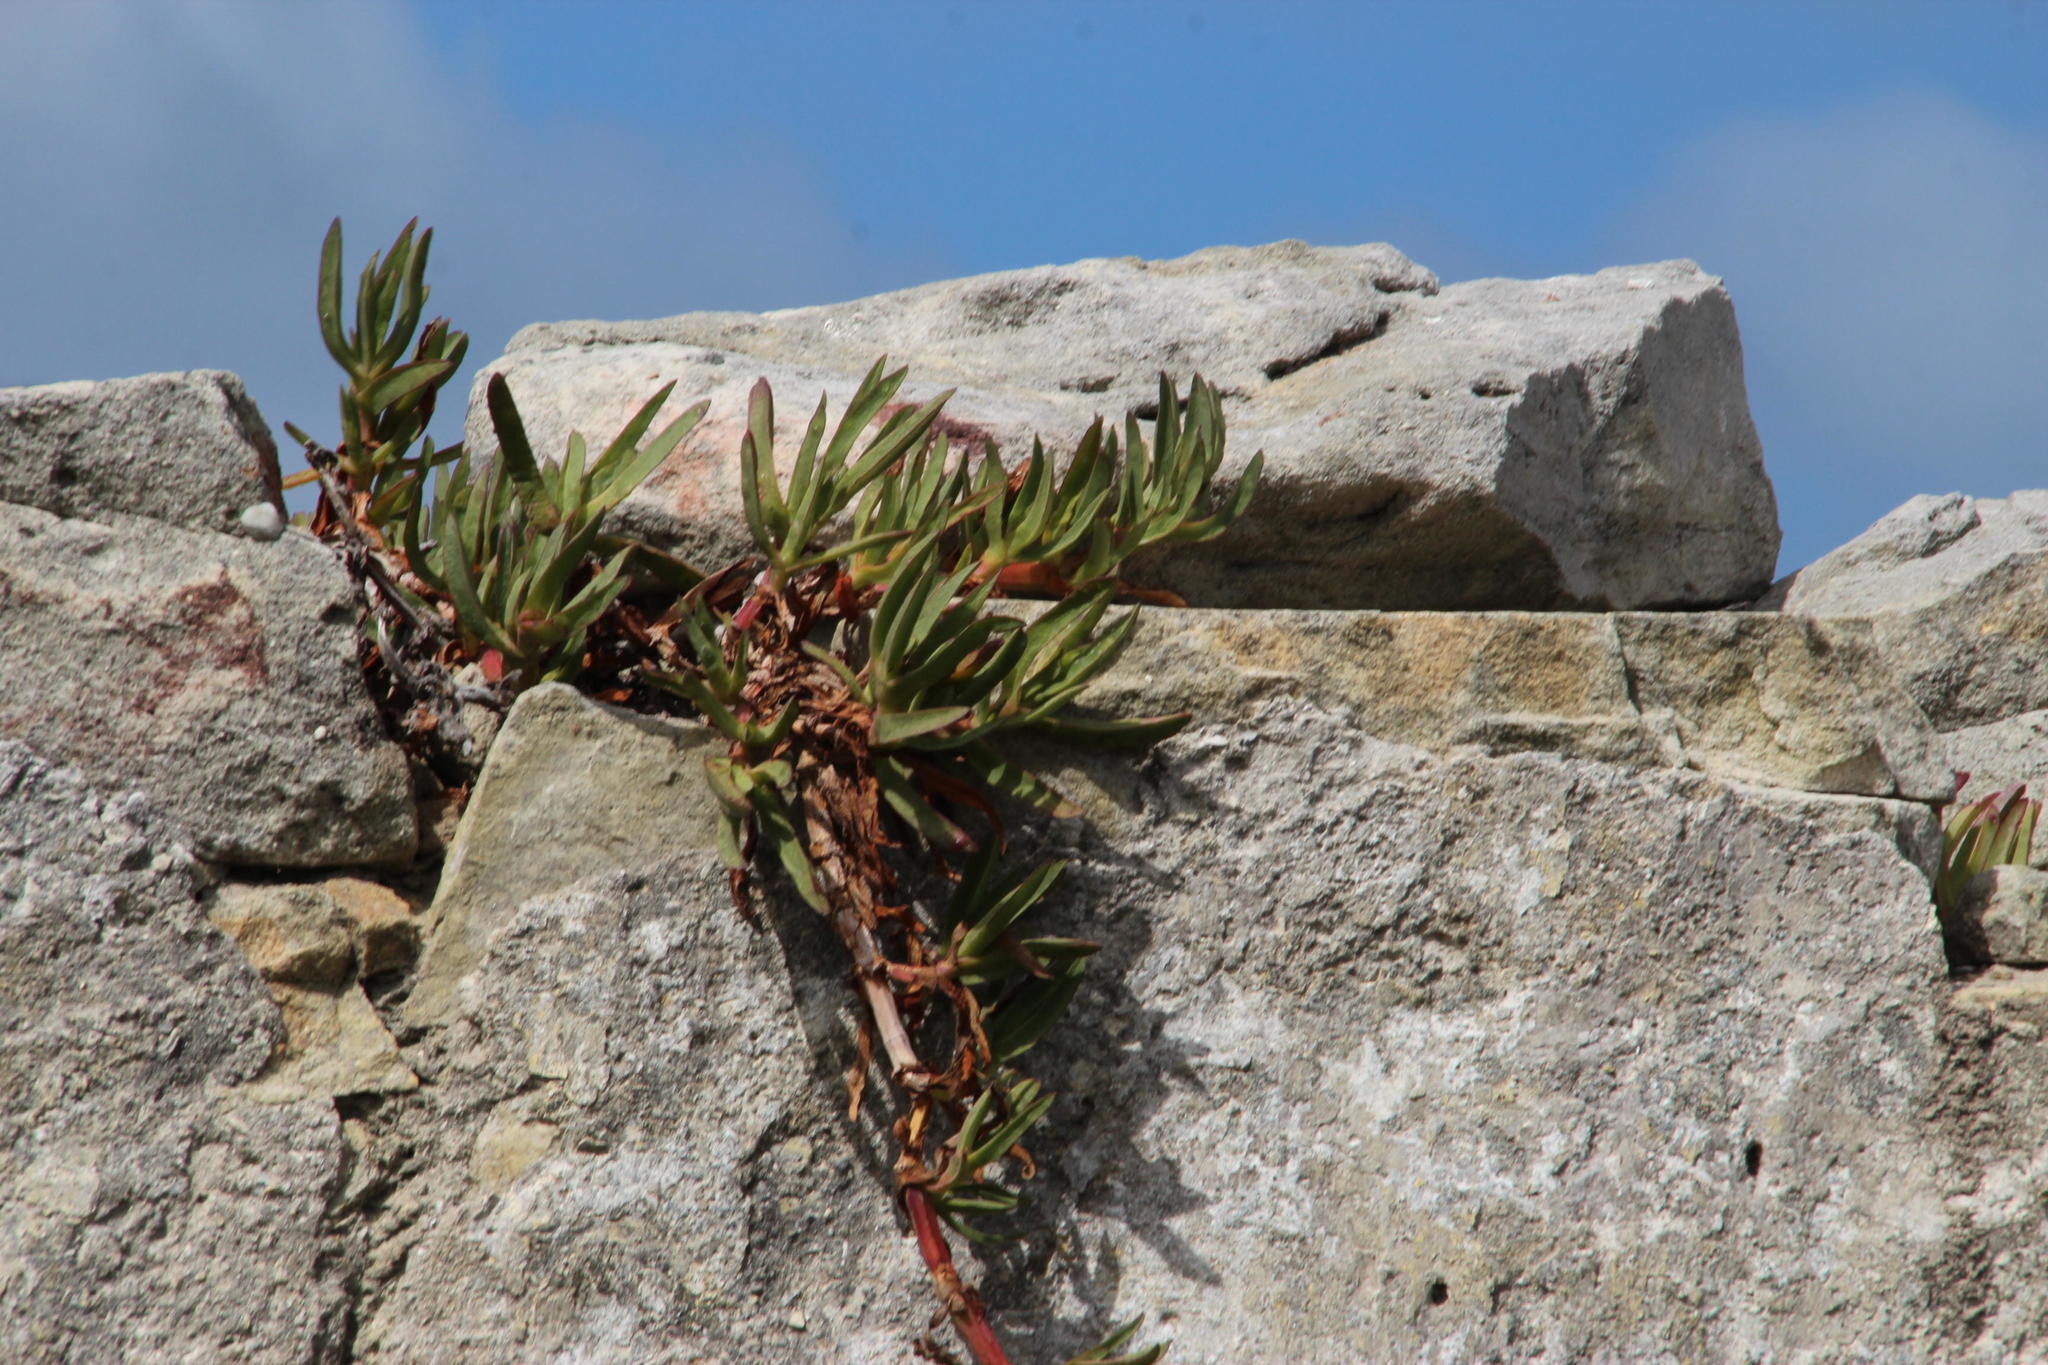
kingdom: Plantae
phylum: Tracheophyta
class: Magnoliopsida
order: Caryophyllales
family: Aizoaceae
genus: Carpobrotus
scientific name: Carpobrotus edulis
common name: Hottentot-fig
